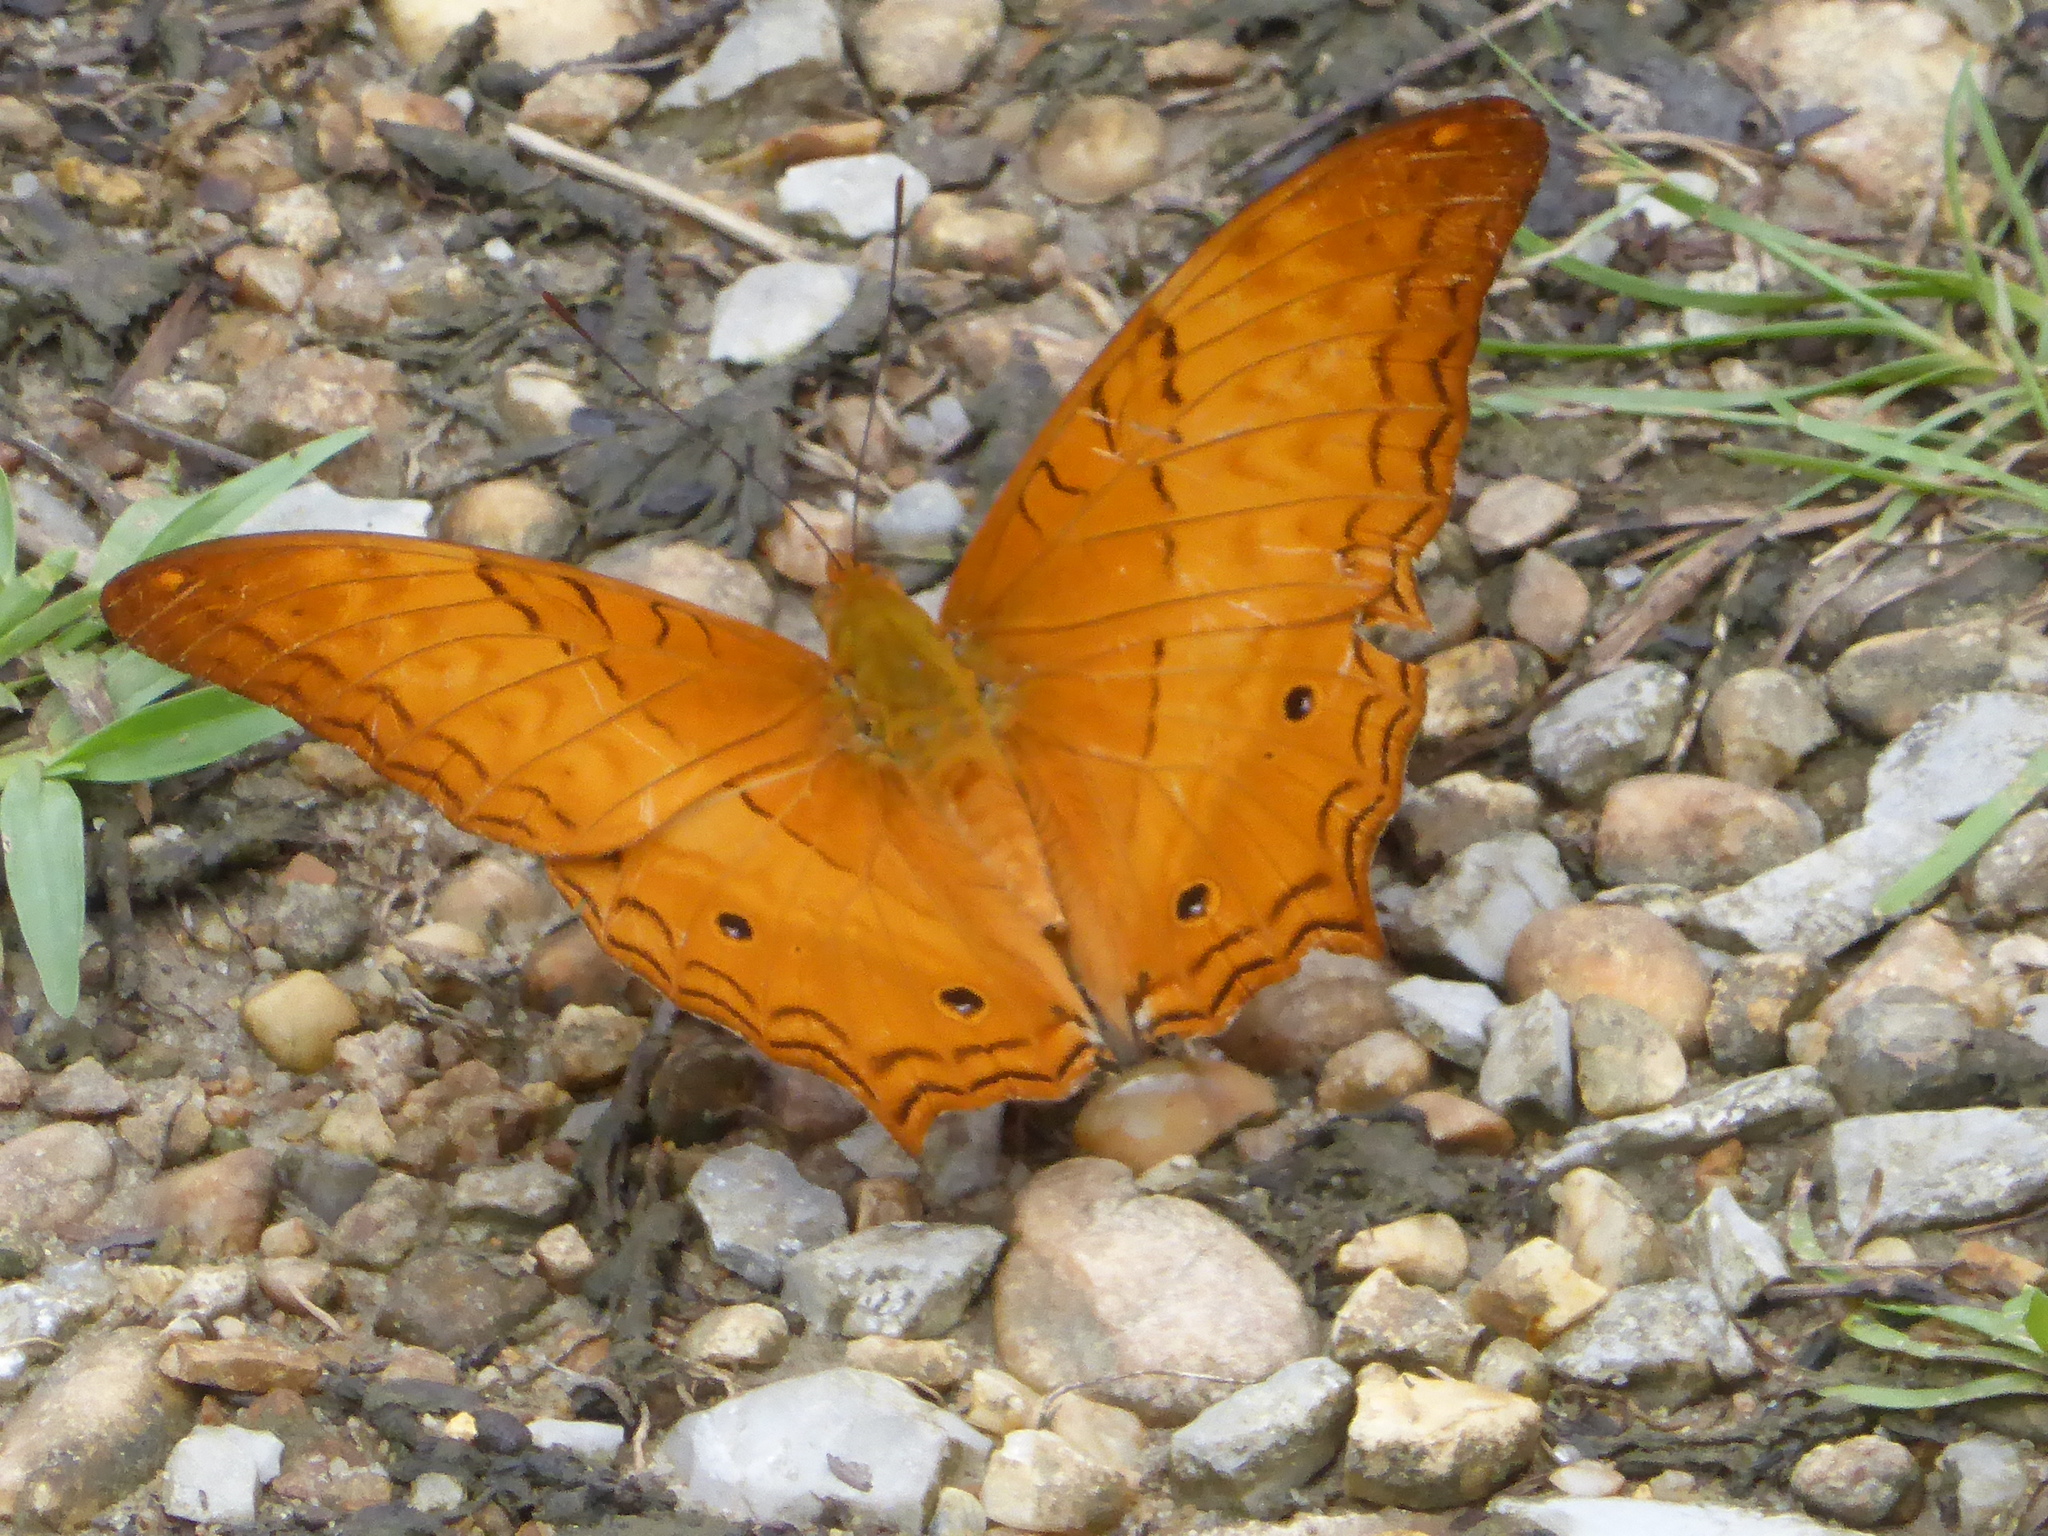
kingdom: Animalia
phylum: Arthropoda
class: Insecta
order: Lepidoptera
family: Nymphalidae
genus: Vindula
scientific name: Vindula deione
